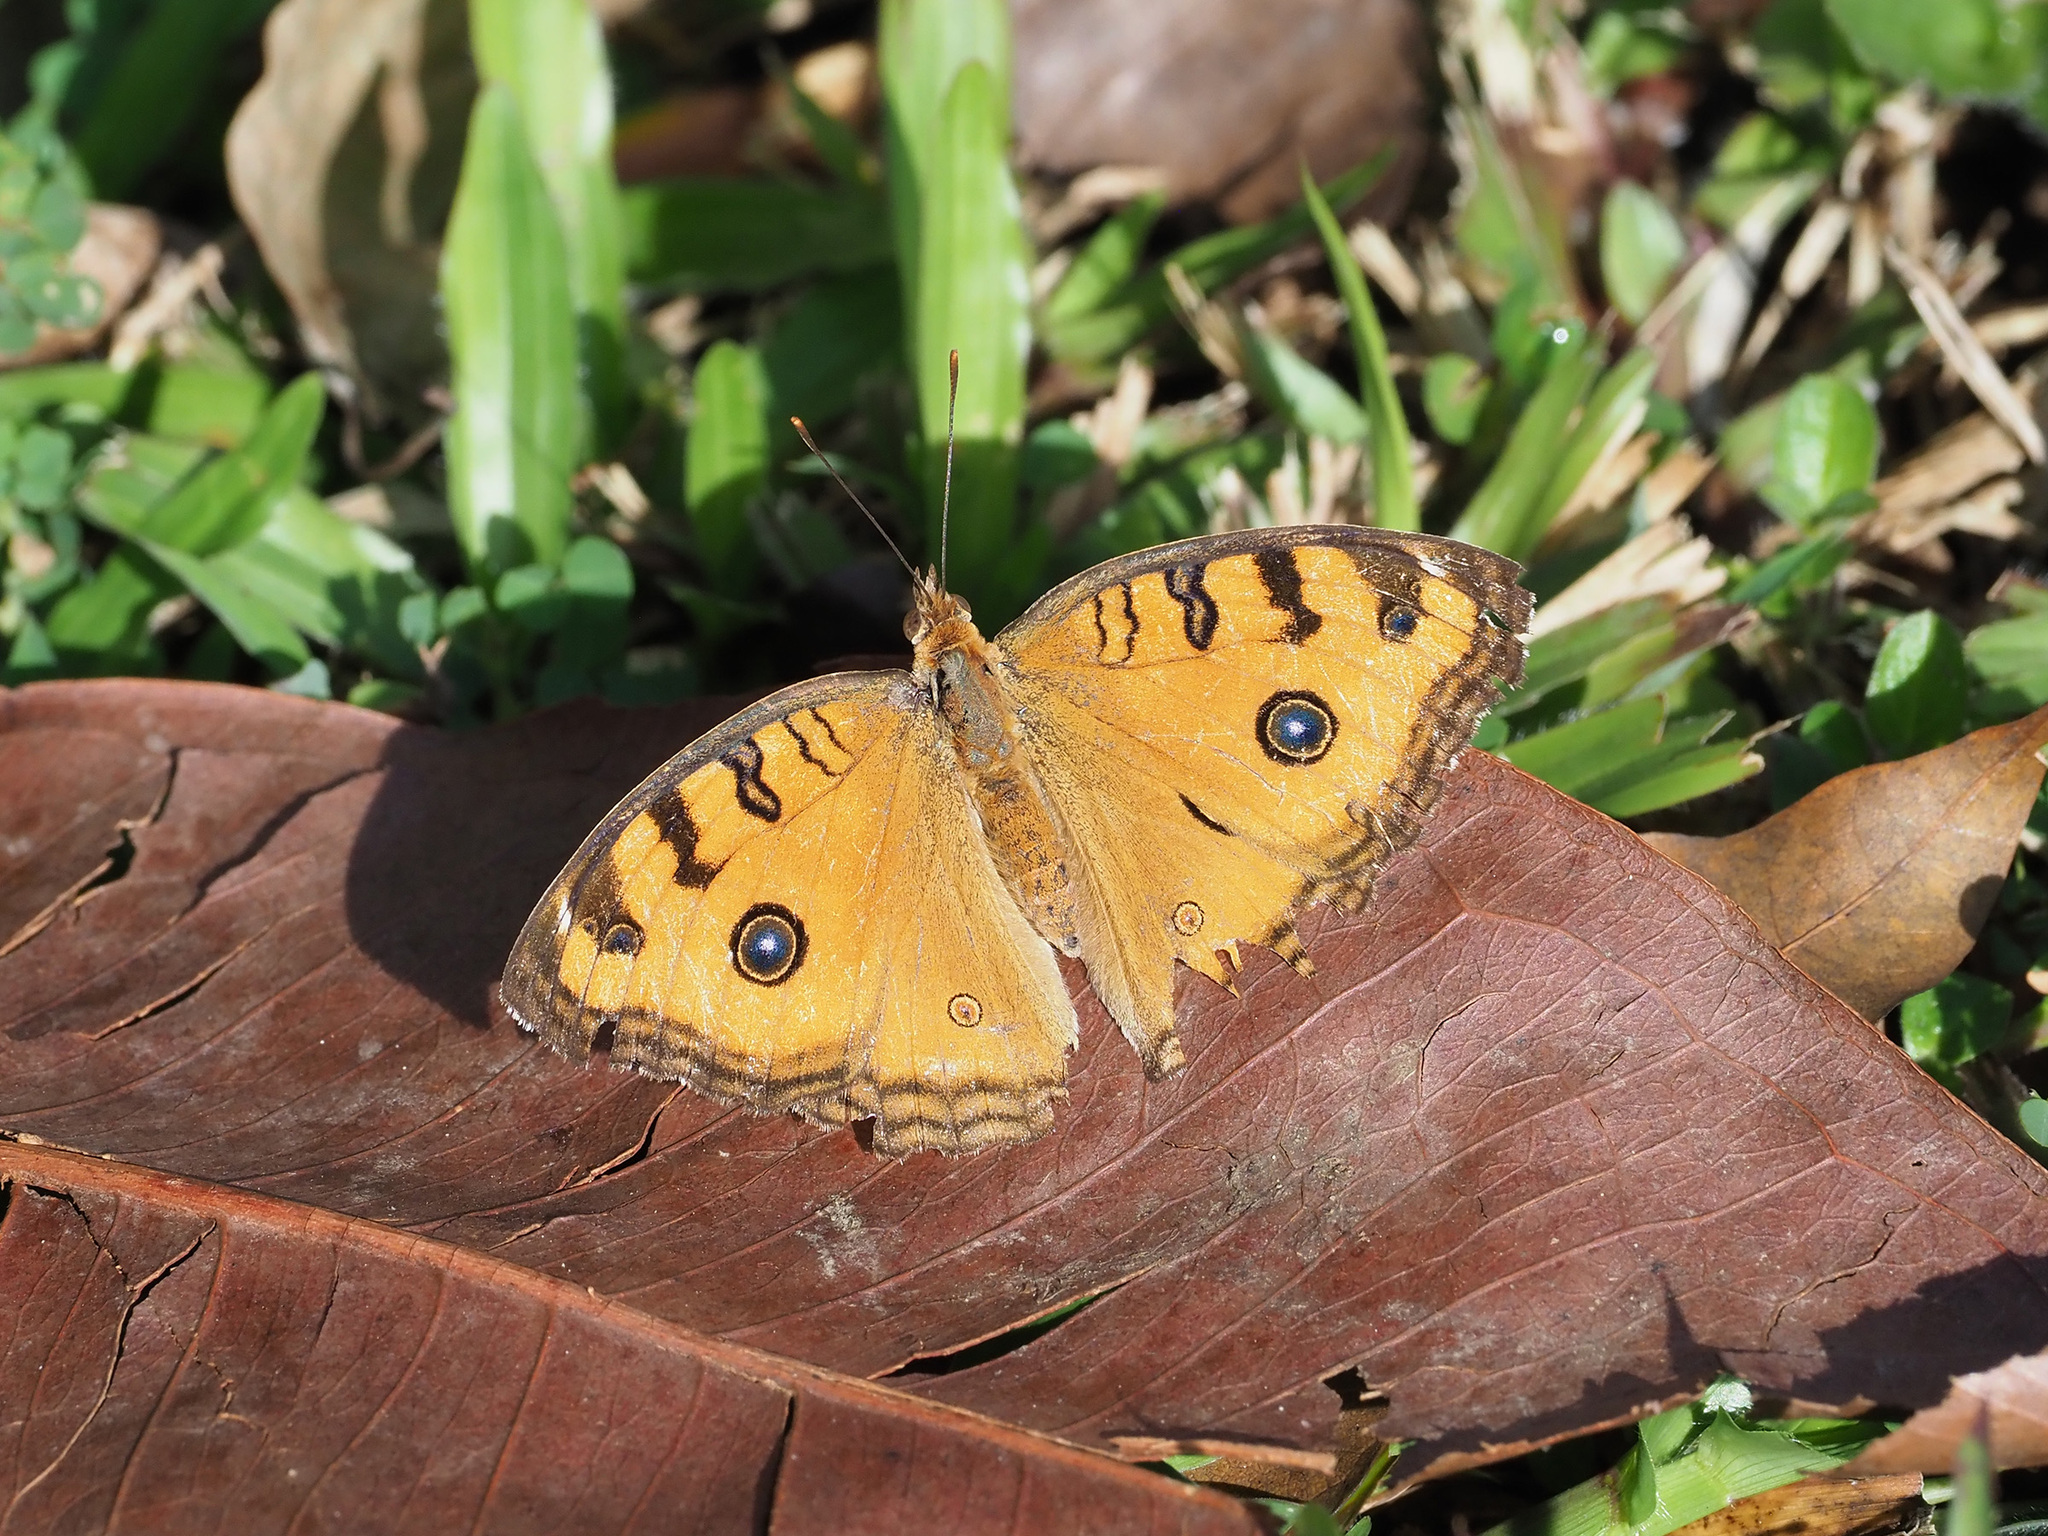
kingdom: Animalia
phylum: Arthropoda
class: Insecta
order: Lepidoptera
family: Nymphalidae
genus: Junonia
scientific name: Junonia almana
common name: Peacock pansy
